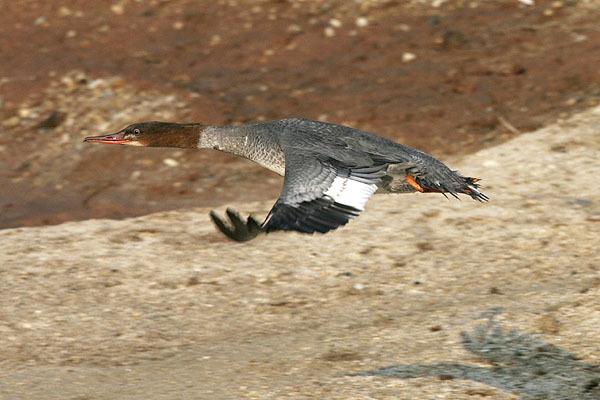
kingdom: Animalia
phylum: Chordata
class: Aves
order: Anseriformes
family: Anatidae
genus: Mergus
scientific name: Mergus merganser
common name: Common merganser
